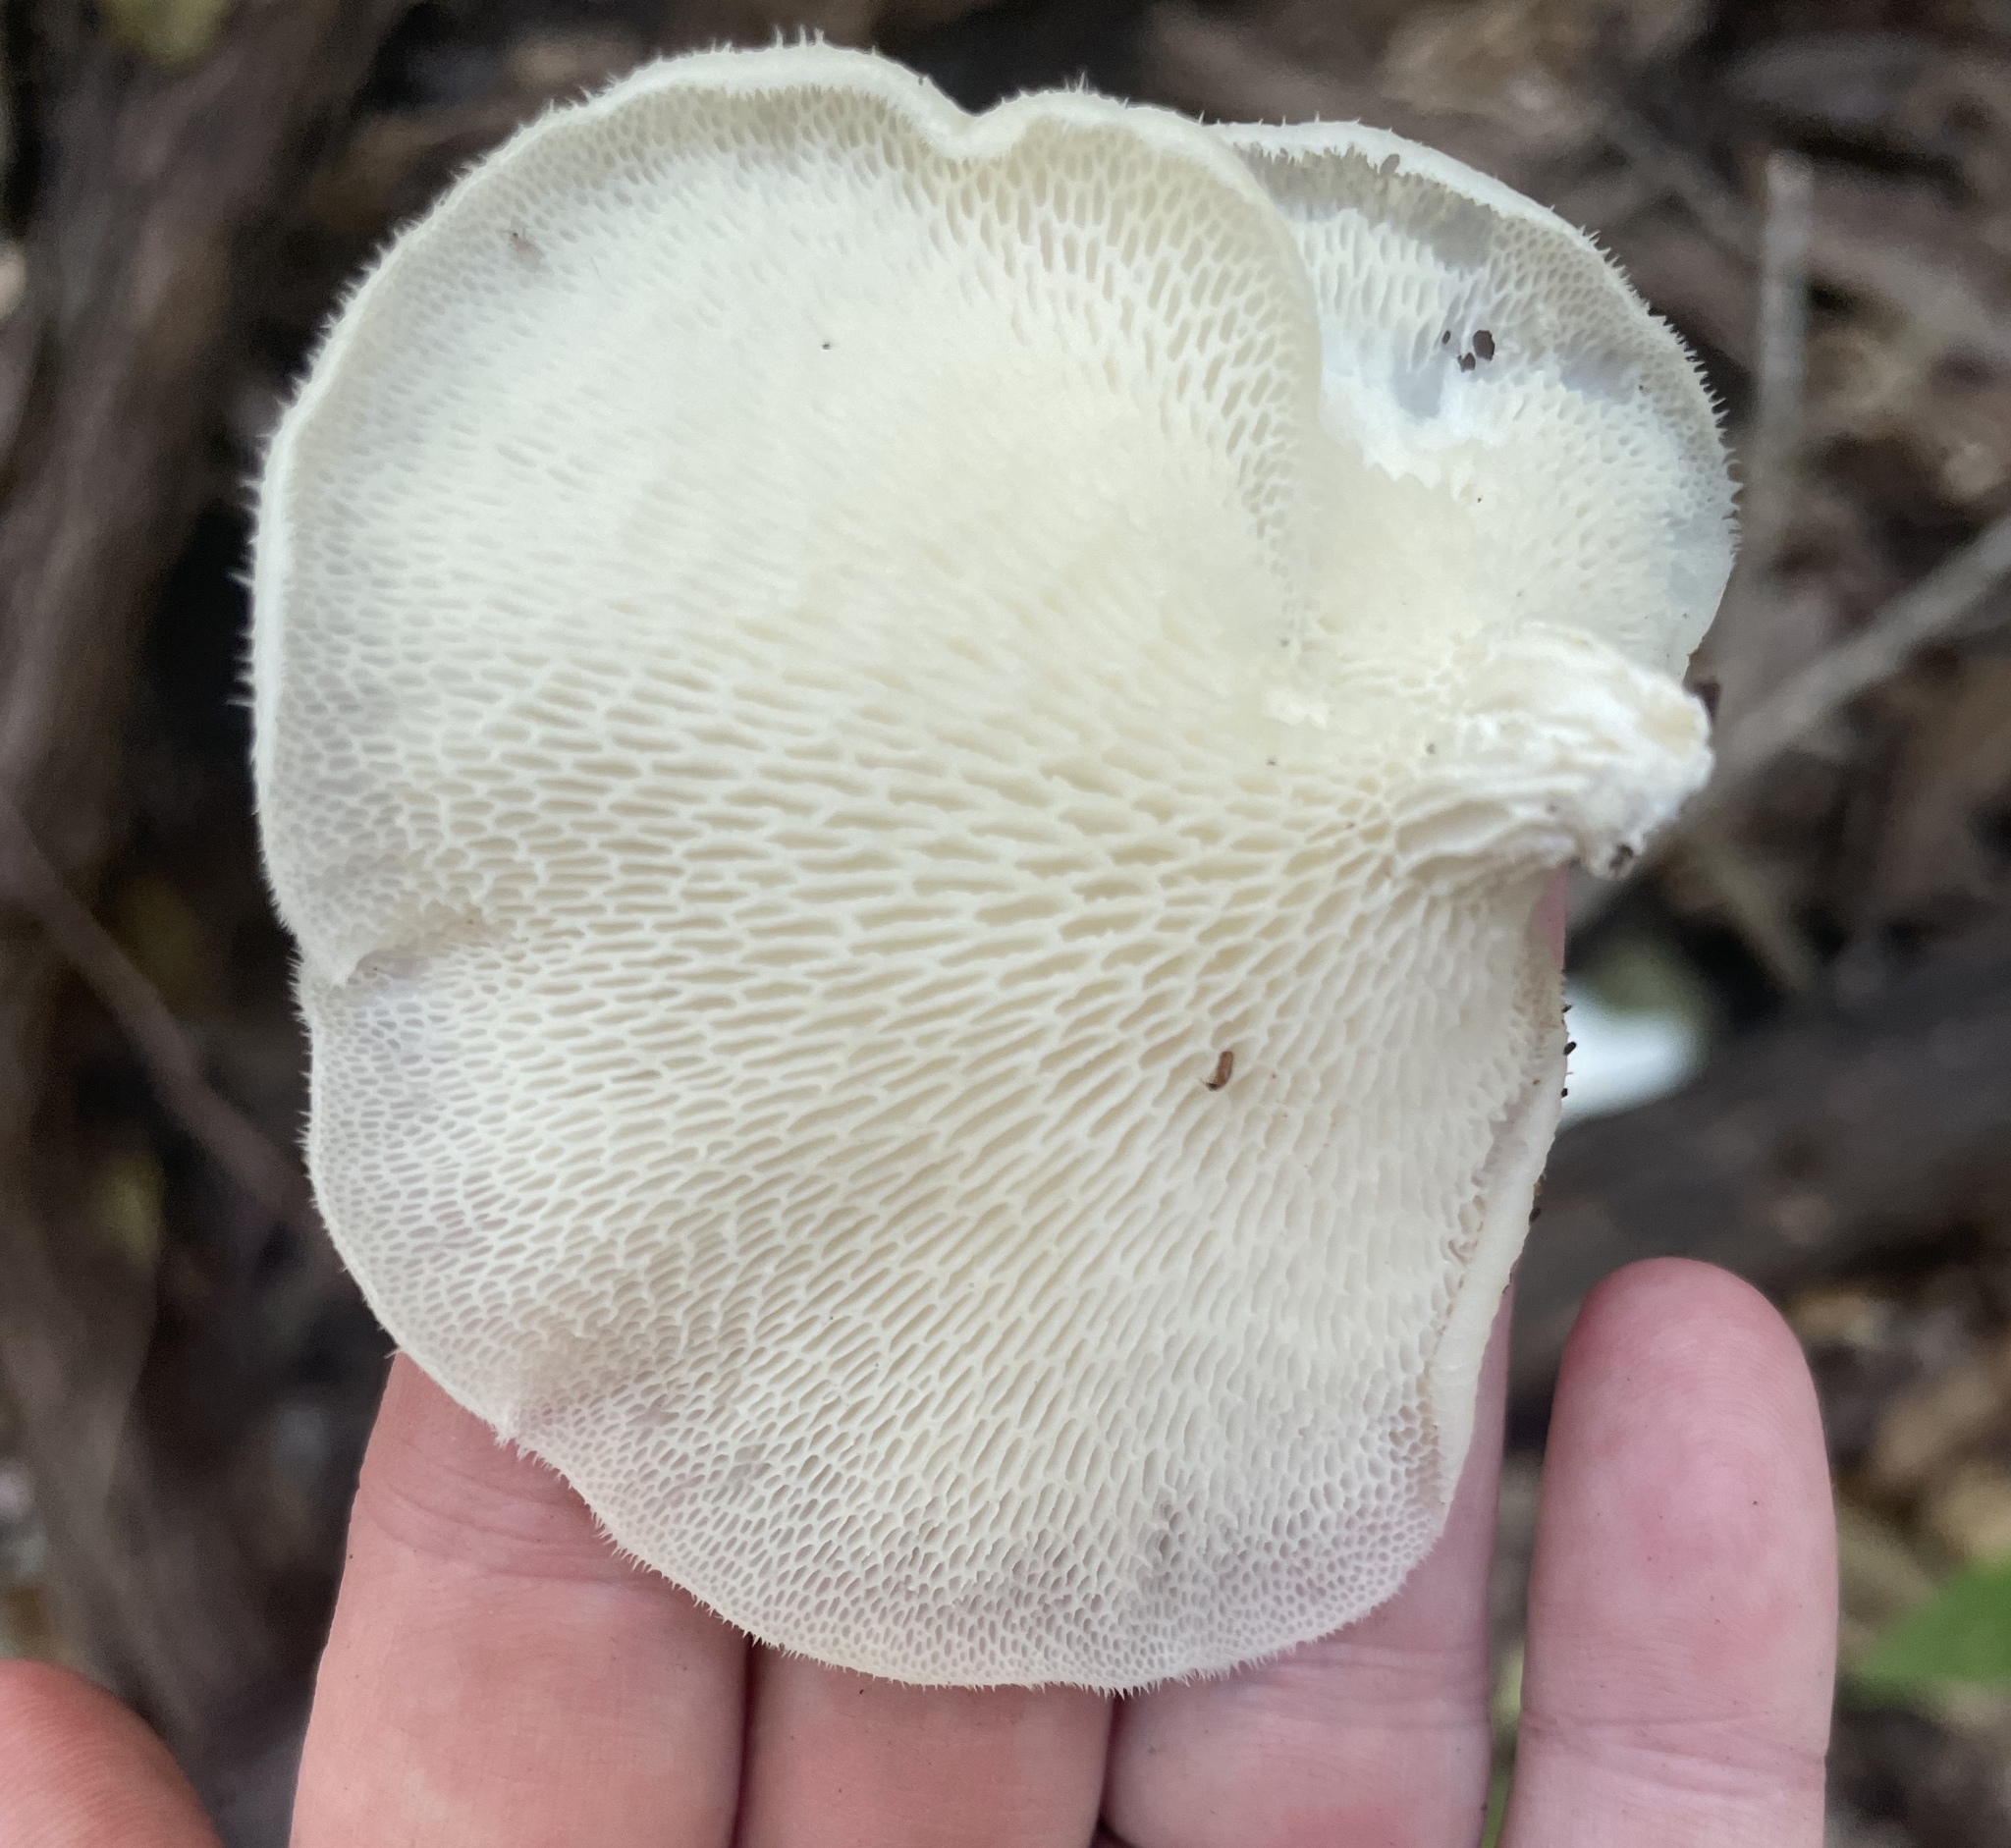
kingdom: Fungi
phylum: Basidiomycota
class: Agaricomycetes
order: Polyporales
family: Polyporaceae
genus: Favolus
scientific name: Favolus tenuiculus
